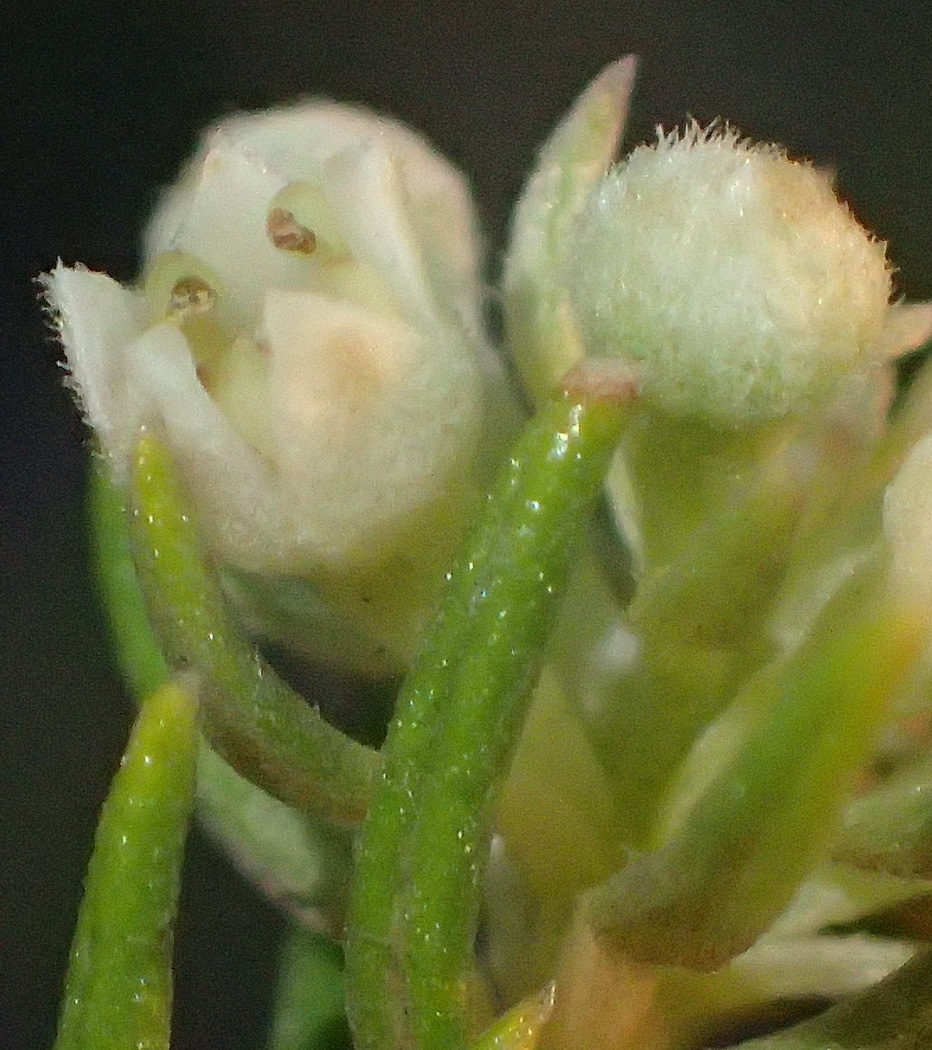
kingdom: Plantae
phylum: Tracheophyta
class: Magnoliopsida
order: Rosales
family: Rhamnaceae
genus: Phylica
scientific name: Phylica axillaris
